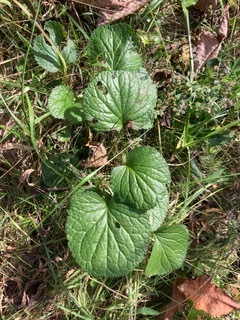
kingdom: Plantae
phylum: Tracheophyta
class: Magnoliopsida
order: Asterales
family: Asteraceae
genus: Packera
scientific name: Packera aurea
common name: Golden groundsel
